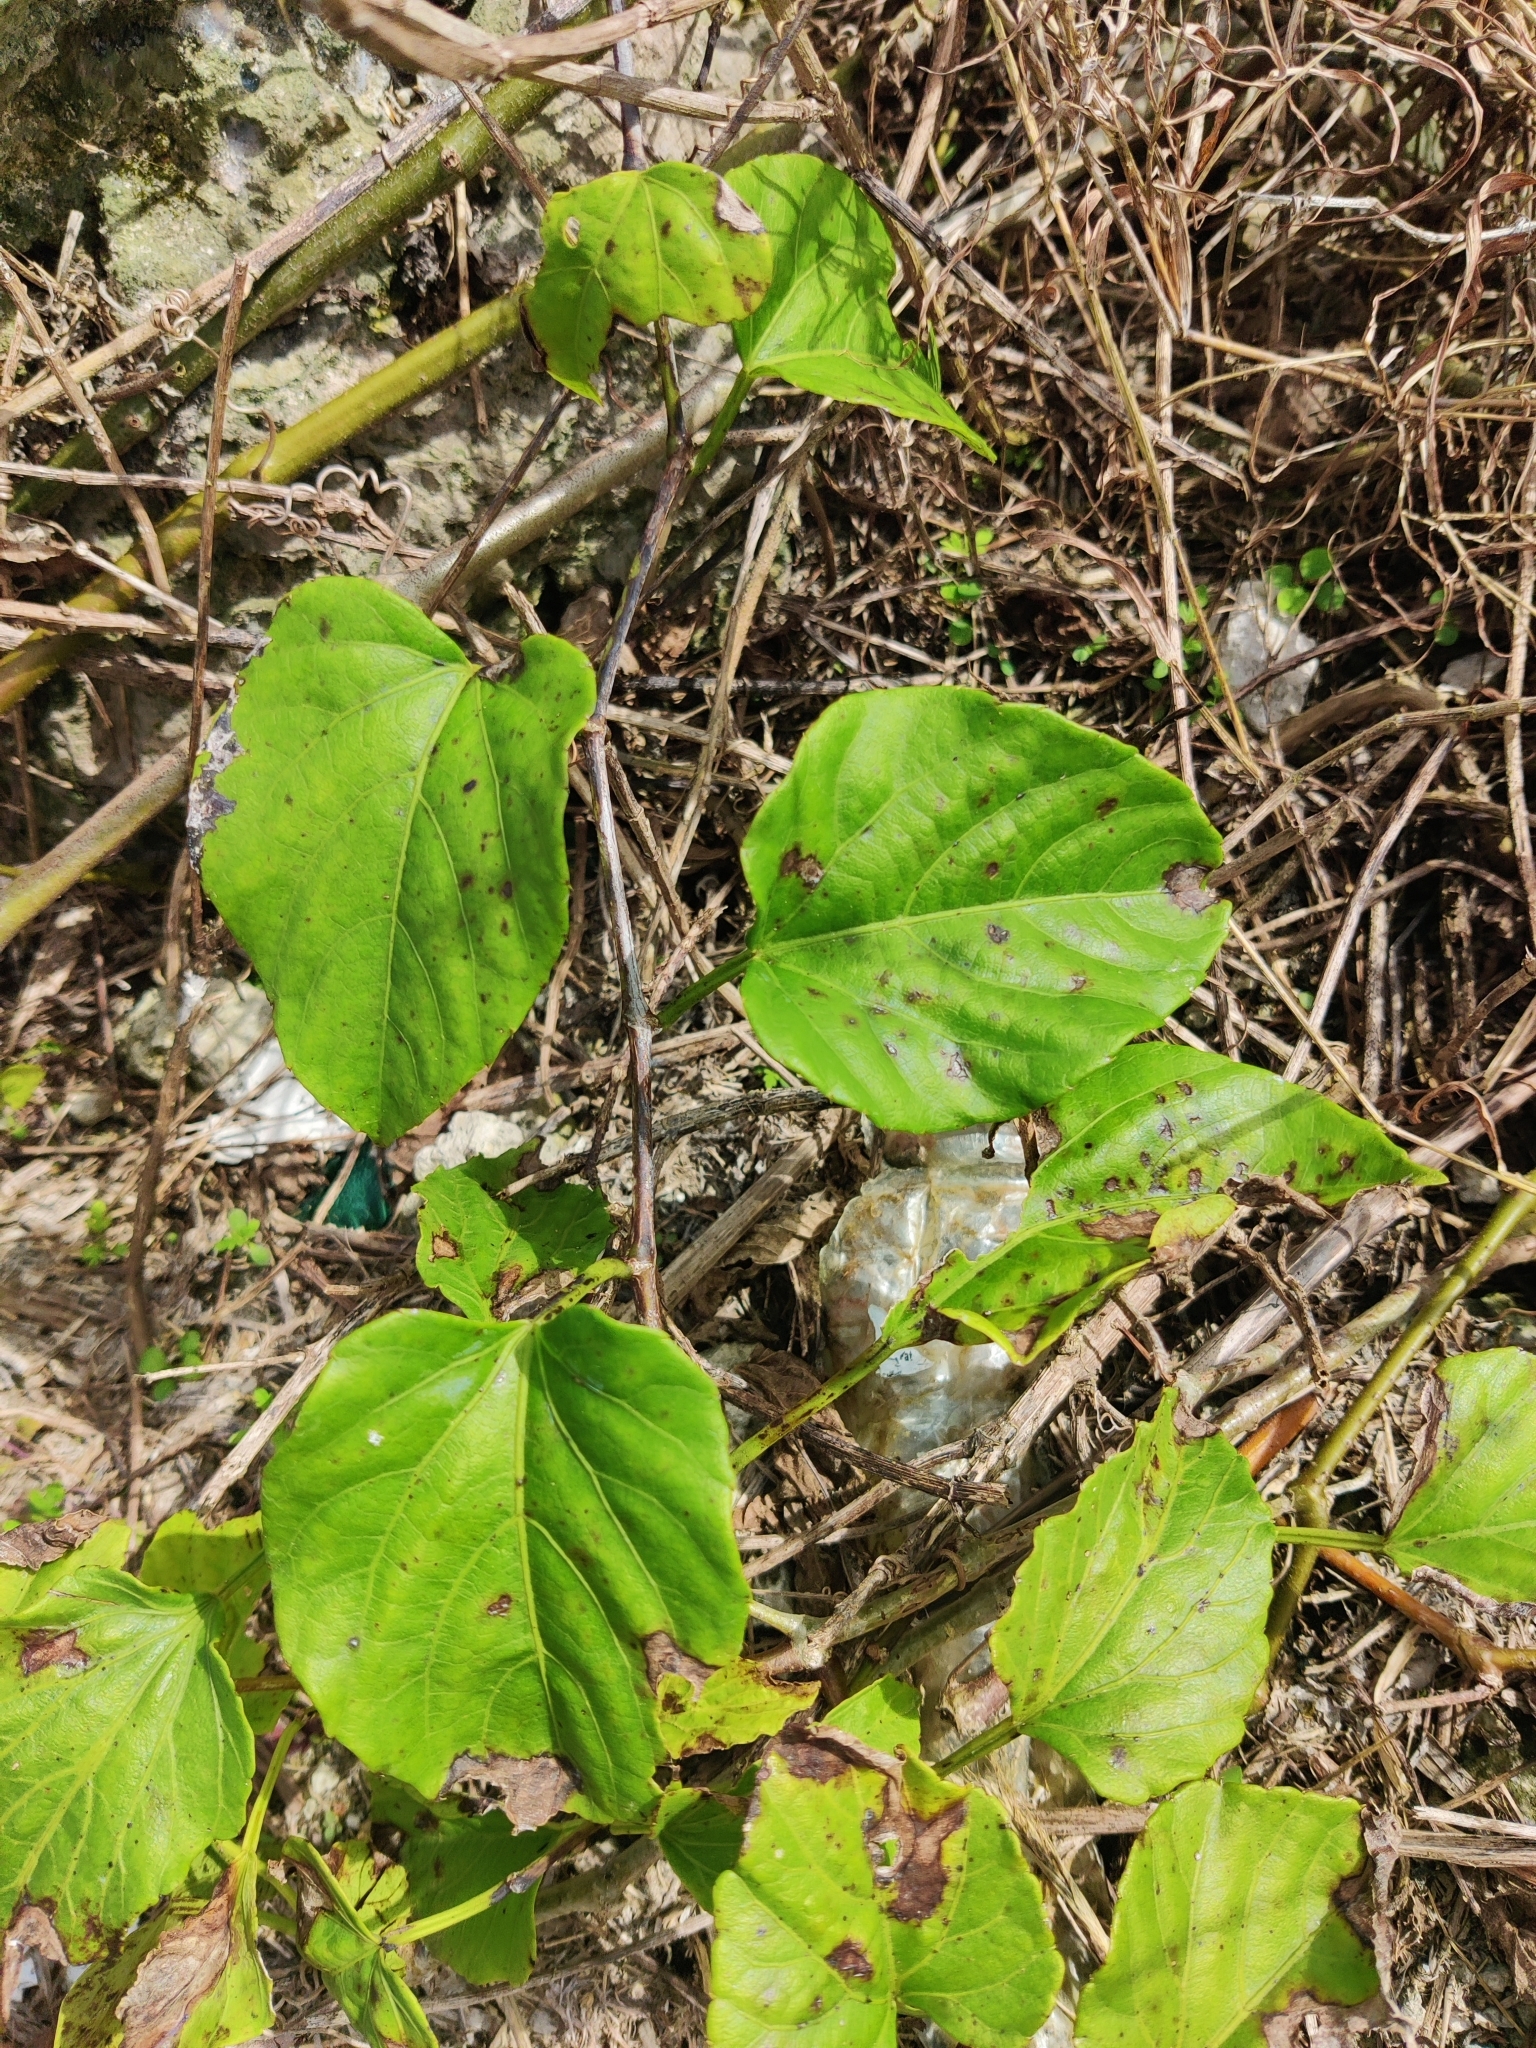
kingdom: Plantae
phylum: Tracheophyta
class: Magnoliopsida
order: Vitales
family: Vitaceae
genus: Cissus
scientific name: Cissus verticillata
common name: Princess vine
